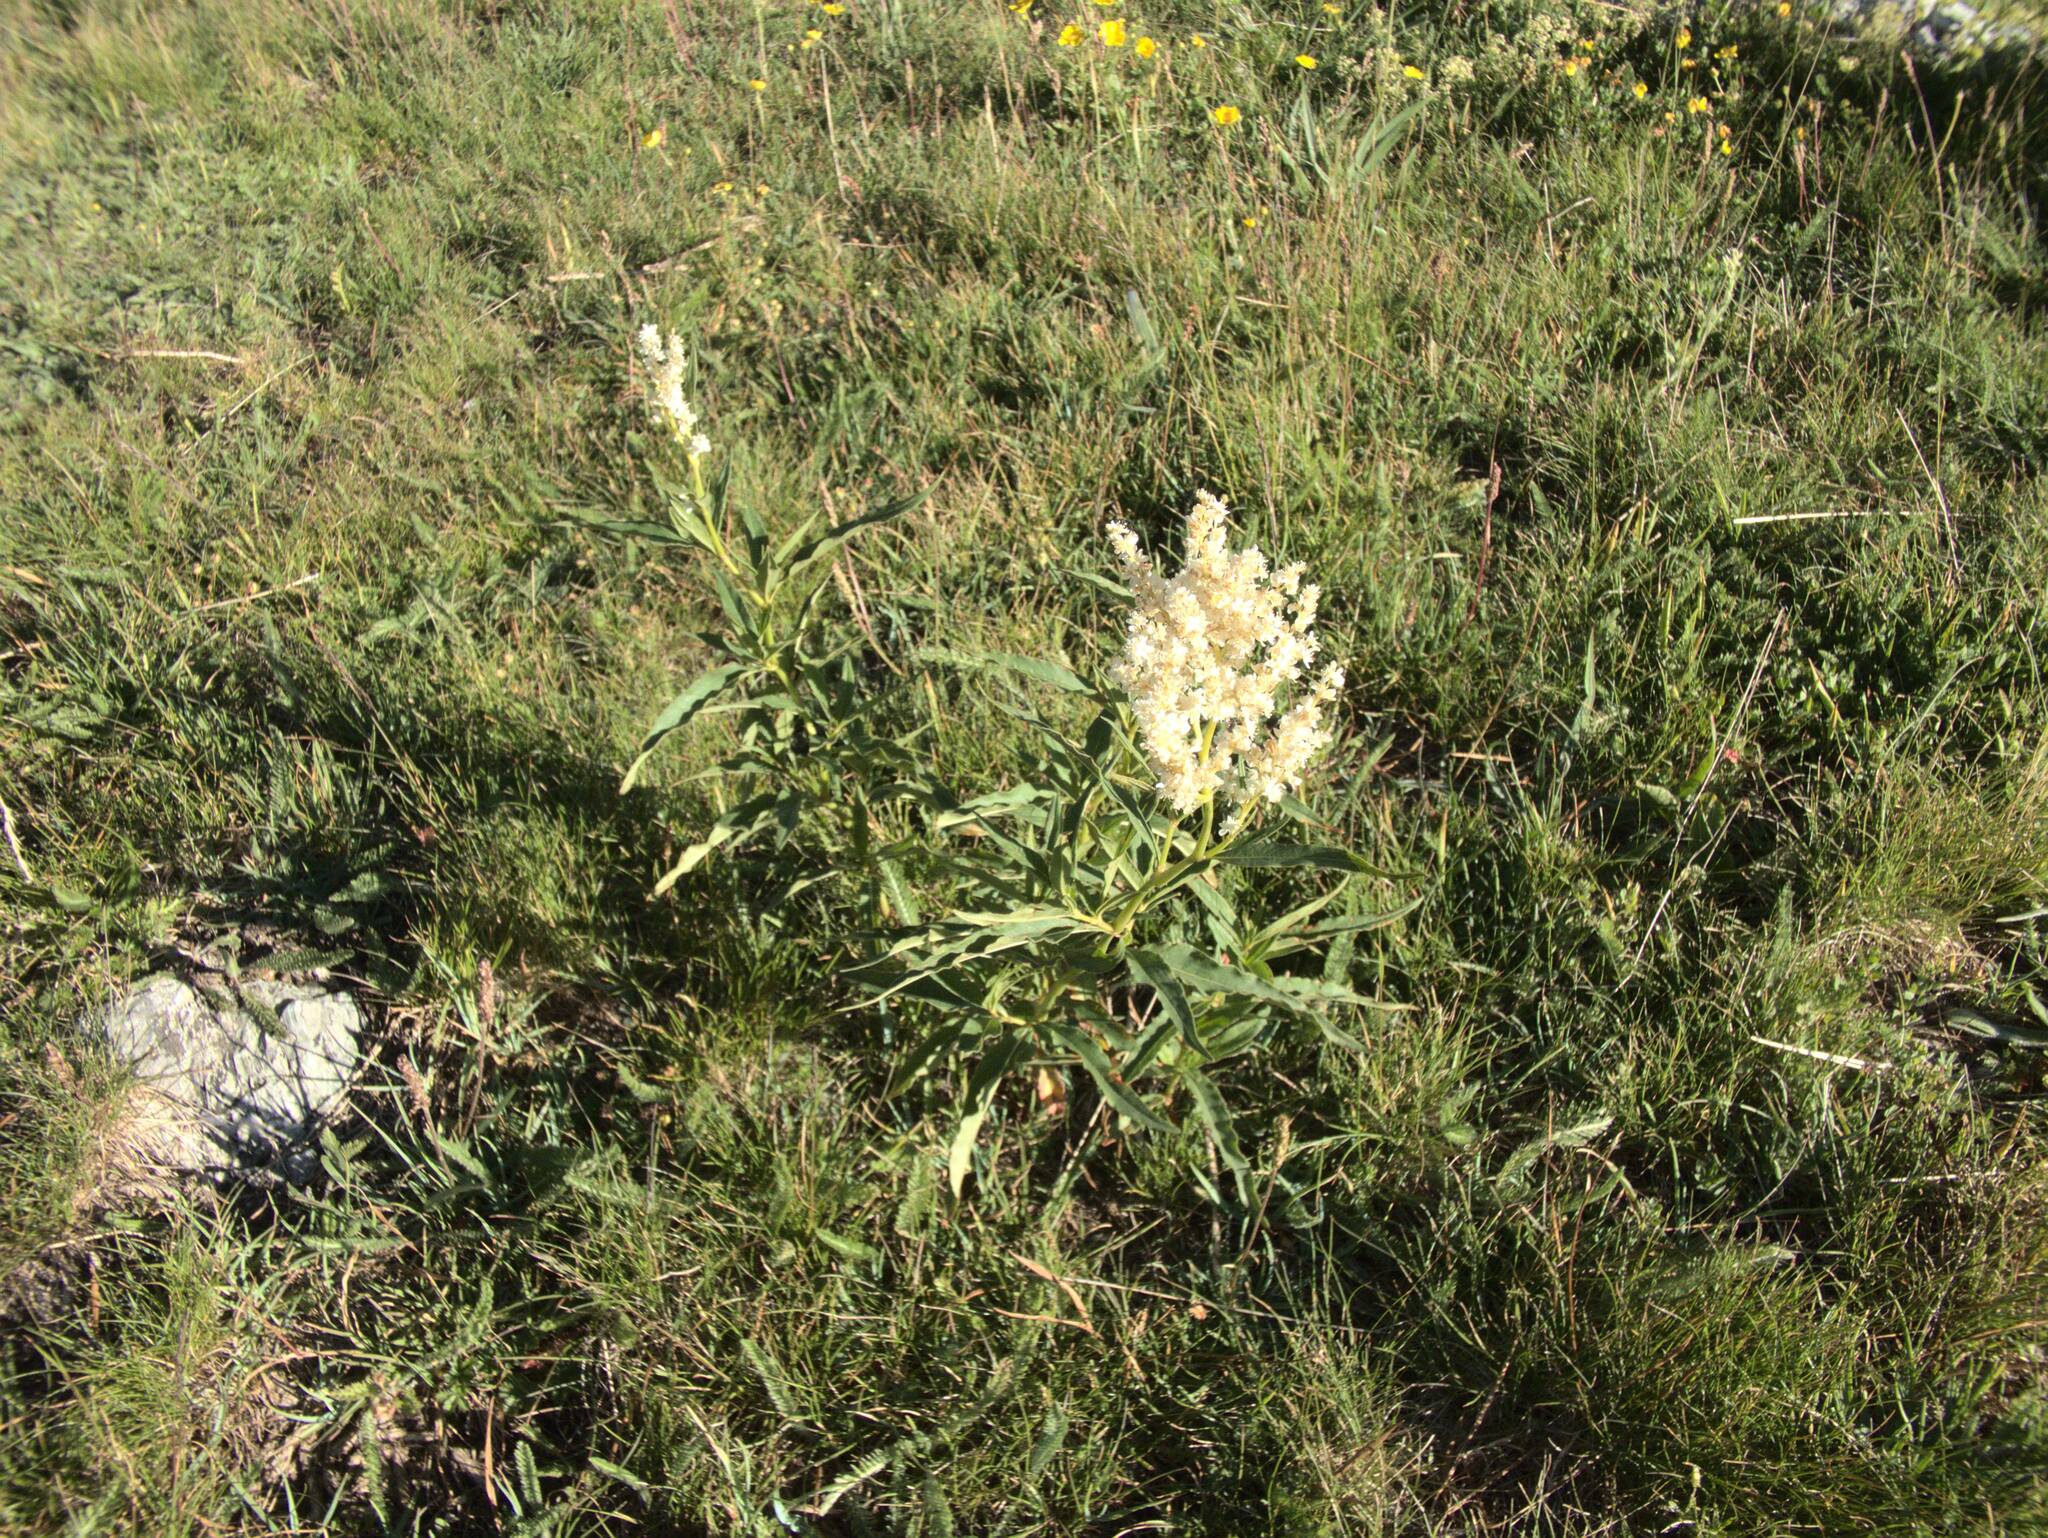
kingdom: Plantae
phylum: Tracheophyta
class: Magnoliopsida
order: Caryophyllales
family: Polygonaceae
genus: Koenigia
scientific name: Koenigia alpina
